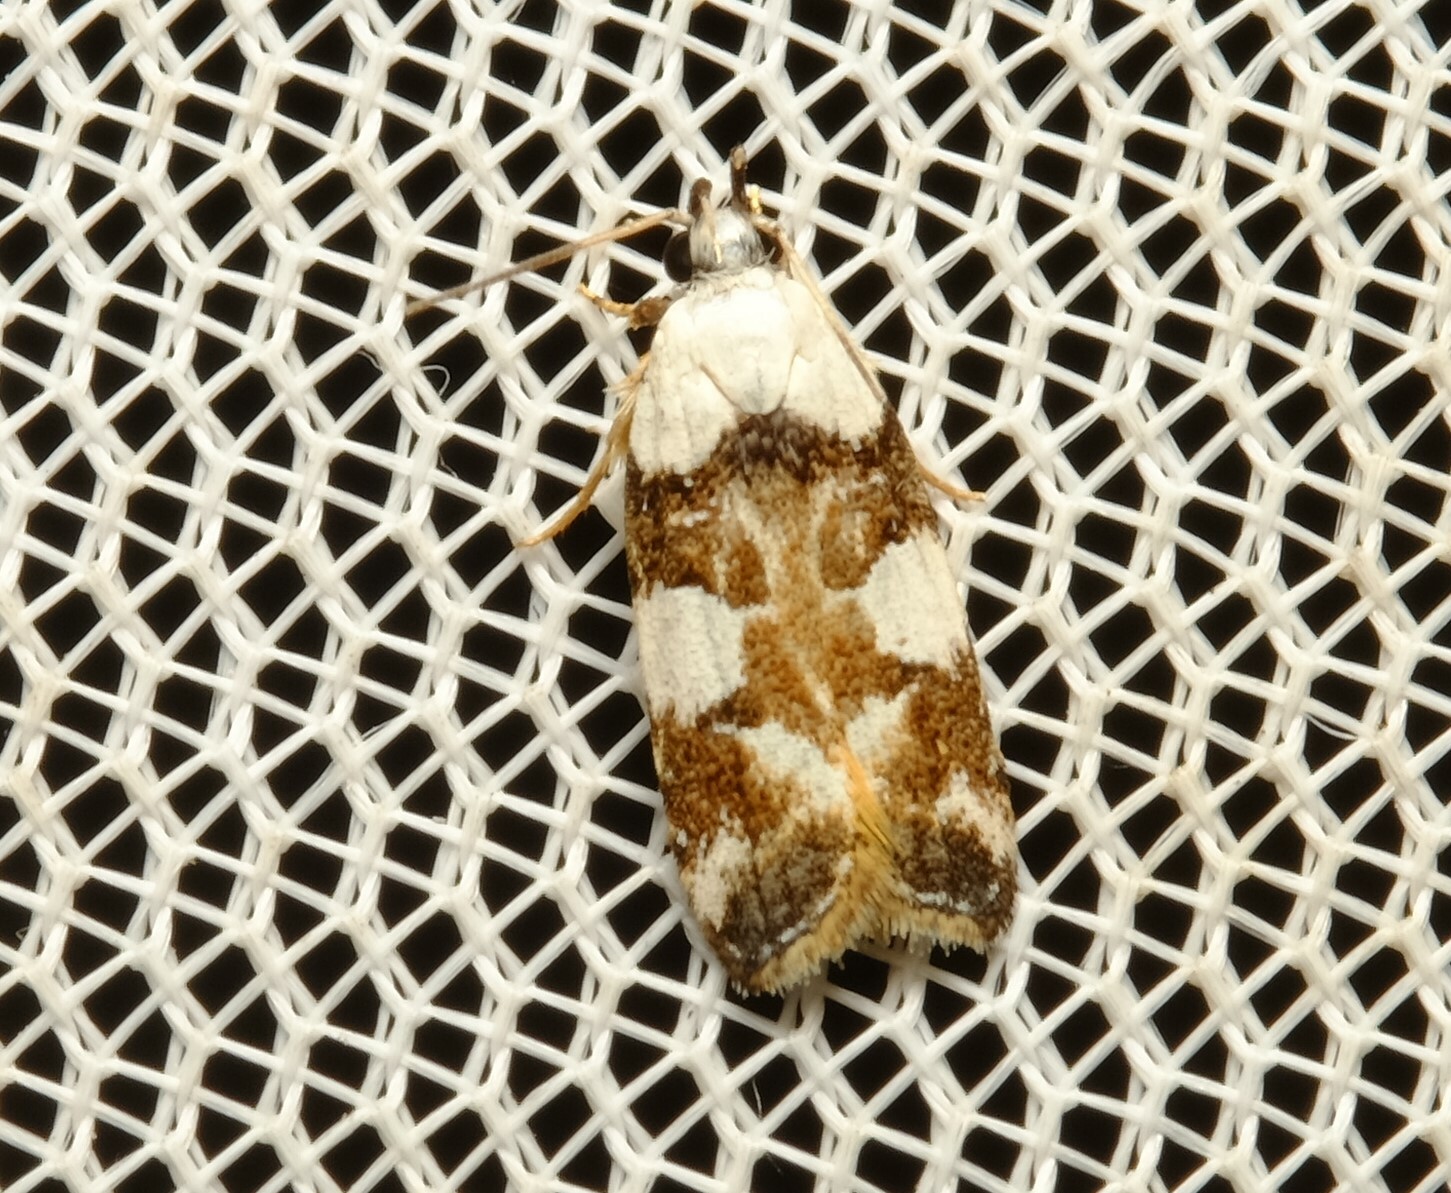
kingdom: Animalia
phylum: Arthropoda
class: Insecta
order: Lepidoptera
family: Gelechiidae
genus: Ardozyga
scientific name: Ardozyga abruptella
